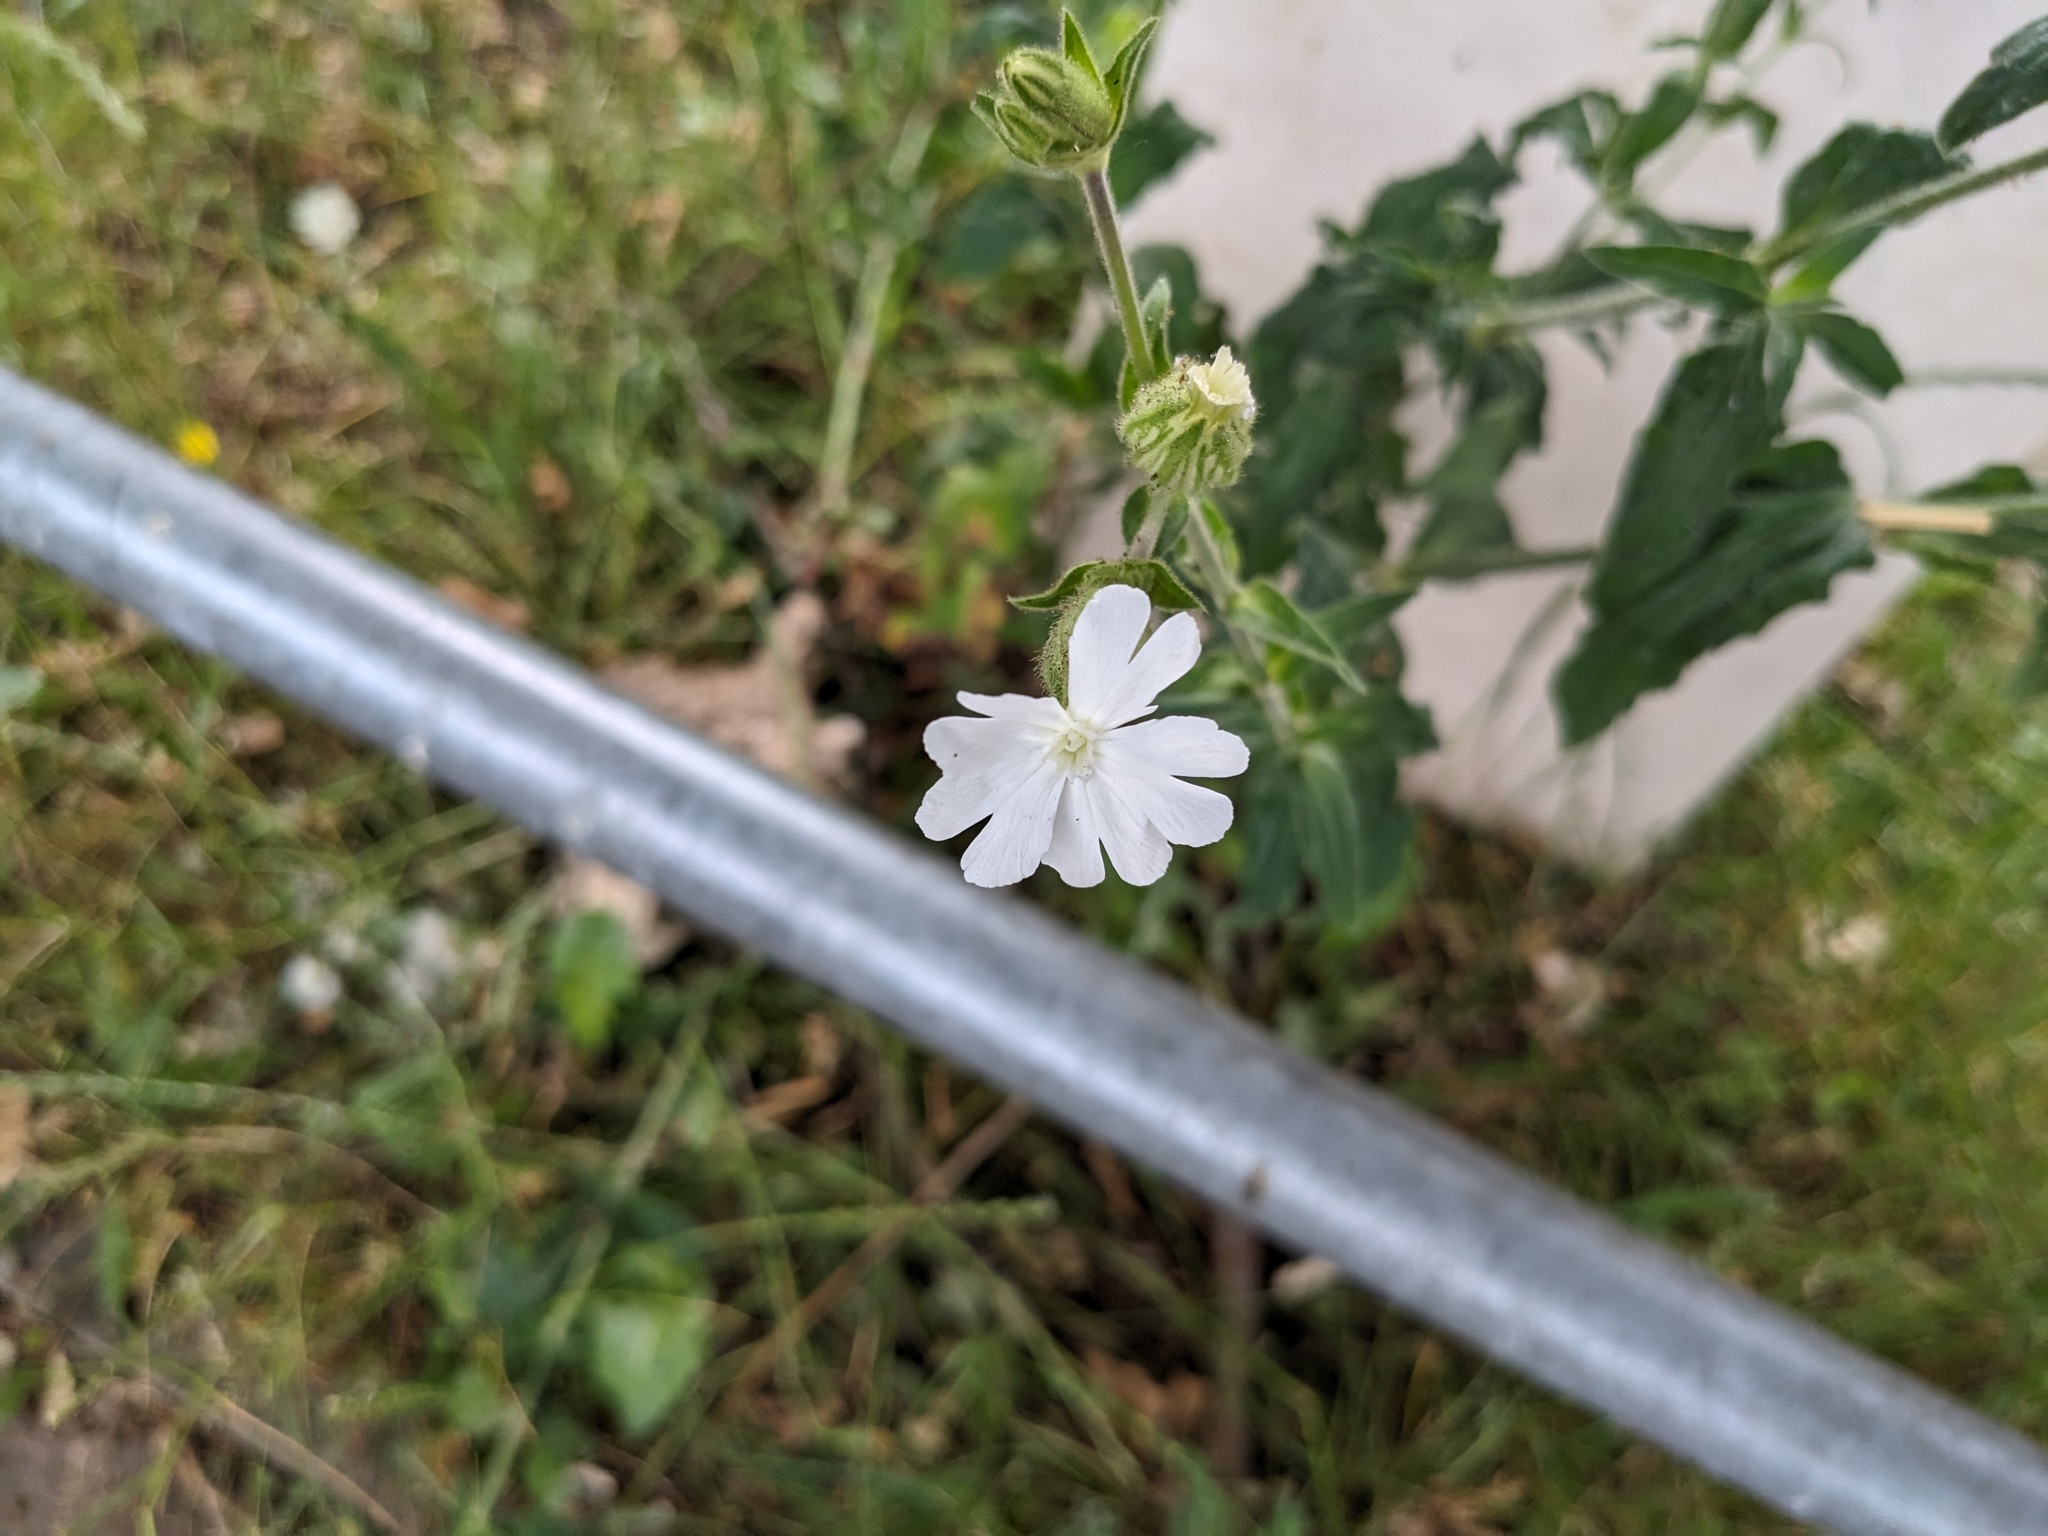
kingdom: Plantae
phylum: Tracheophyta
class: Magnoliopsida
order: Caryophyllales
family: Caryophyllaceae
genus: Silene
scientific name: Silene latifolia
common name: White campion
